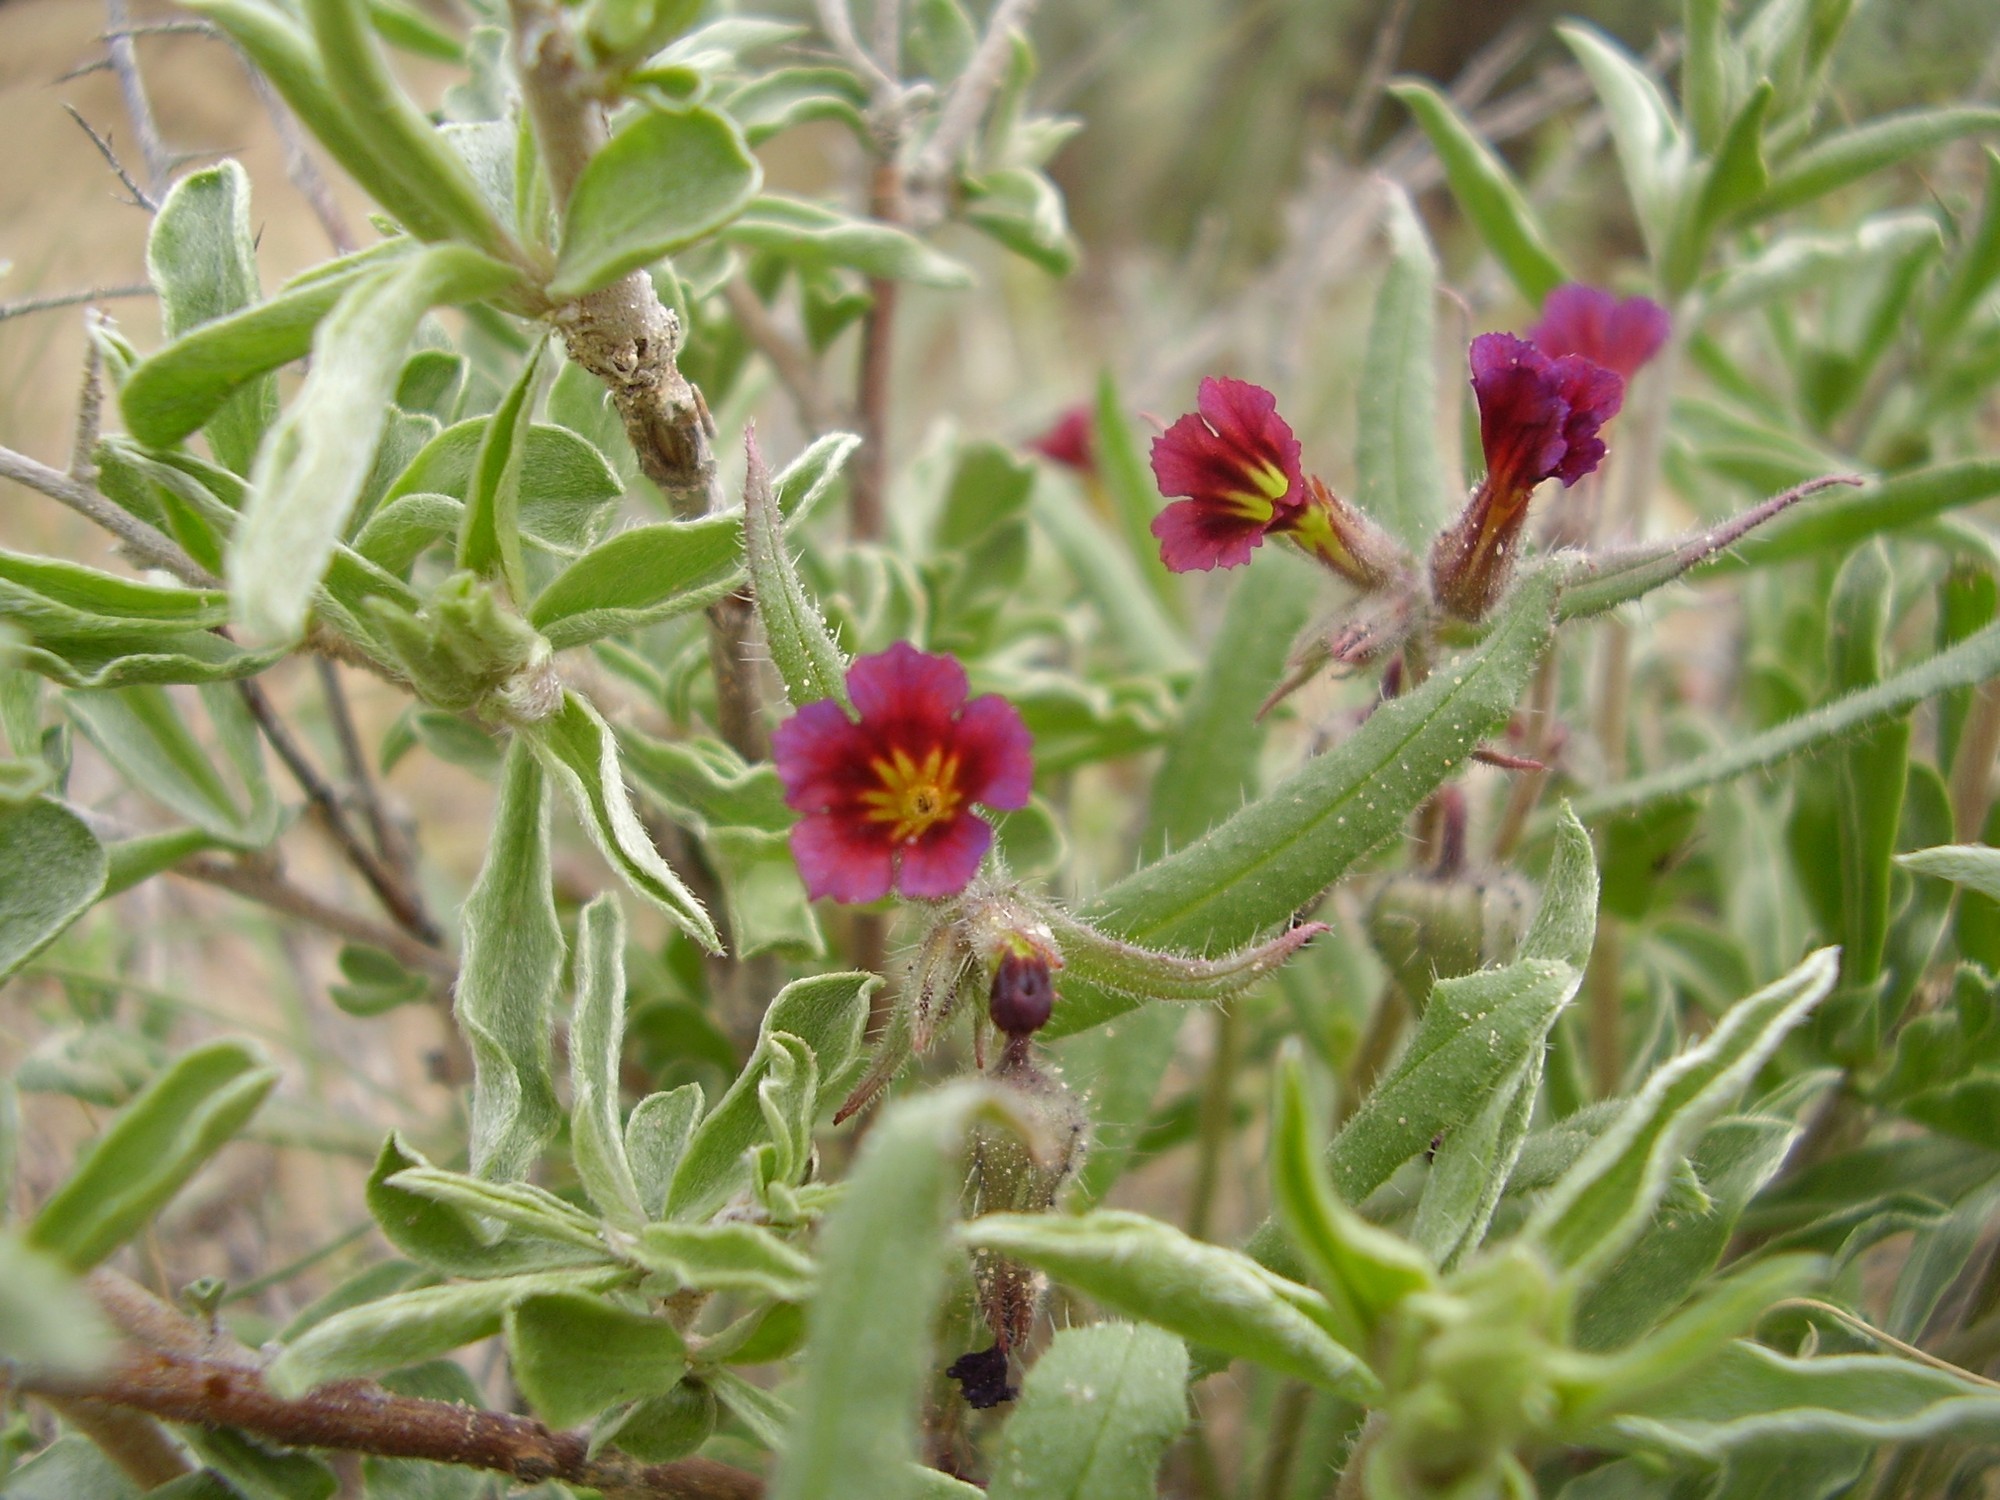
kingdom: Plantae
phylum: Tracheophyta
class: Magnoliopsida
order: Boraginales
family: Boraginaceae
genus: Nonea
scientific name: Nonea caspica
